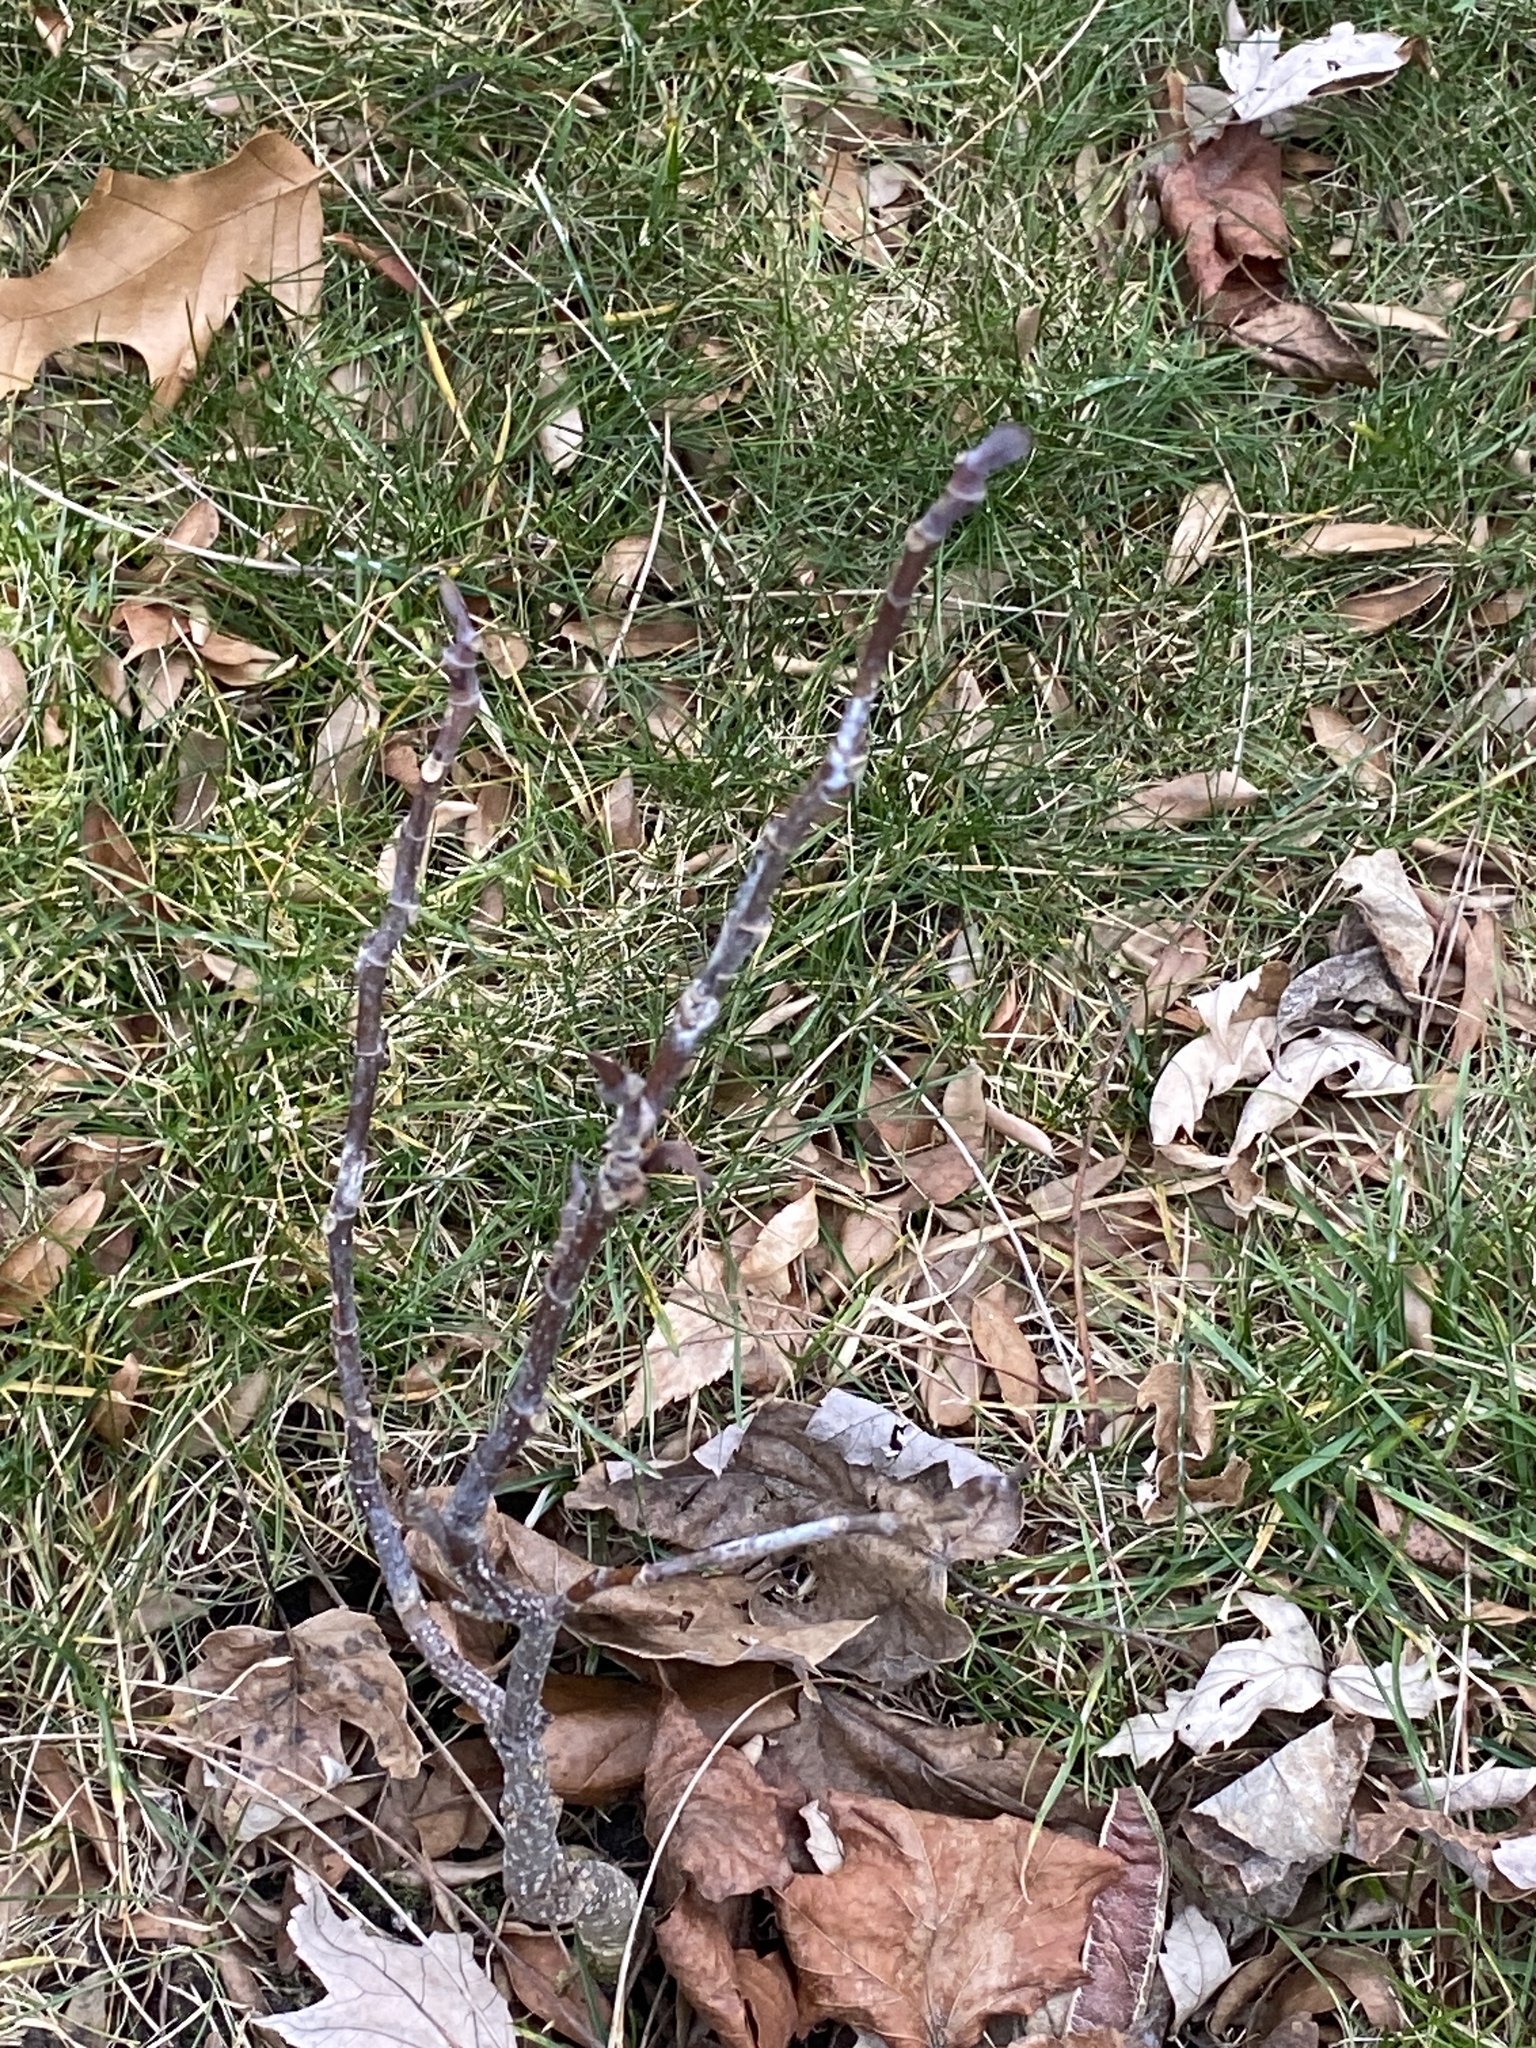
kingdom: Plantae
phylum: Tracheophyta
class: Magnoliopsida
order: Magnoliales
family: Magnoliaceae
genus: Liriodendron
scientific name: Liriodendron tulipifera
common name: Tulip tree
